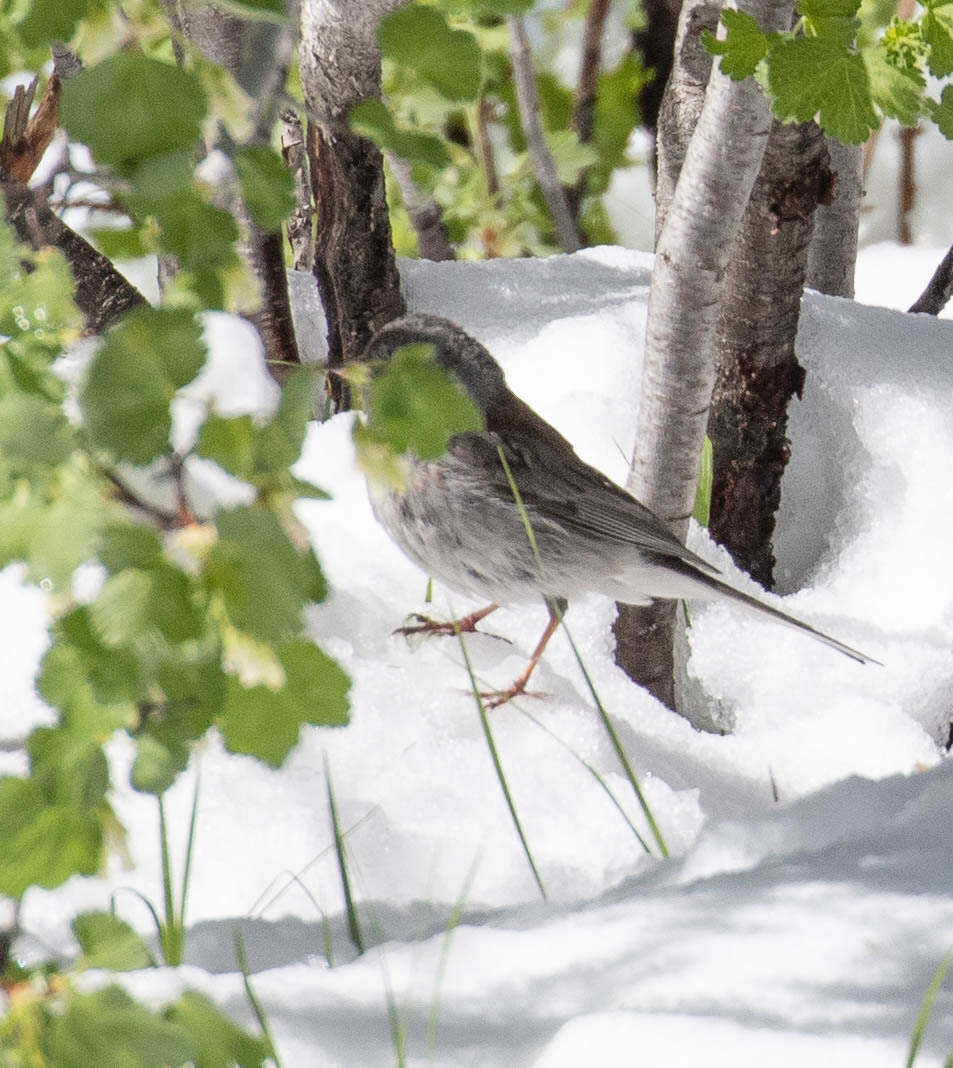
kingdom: Animalia
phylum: Chordata
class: Aves
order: Passeriformes
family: Passerellidae
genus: Junco
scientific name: Junco hyemalis
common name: Dark-eyed junco
